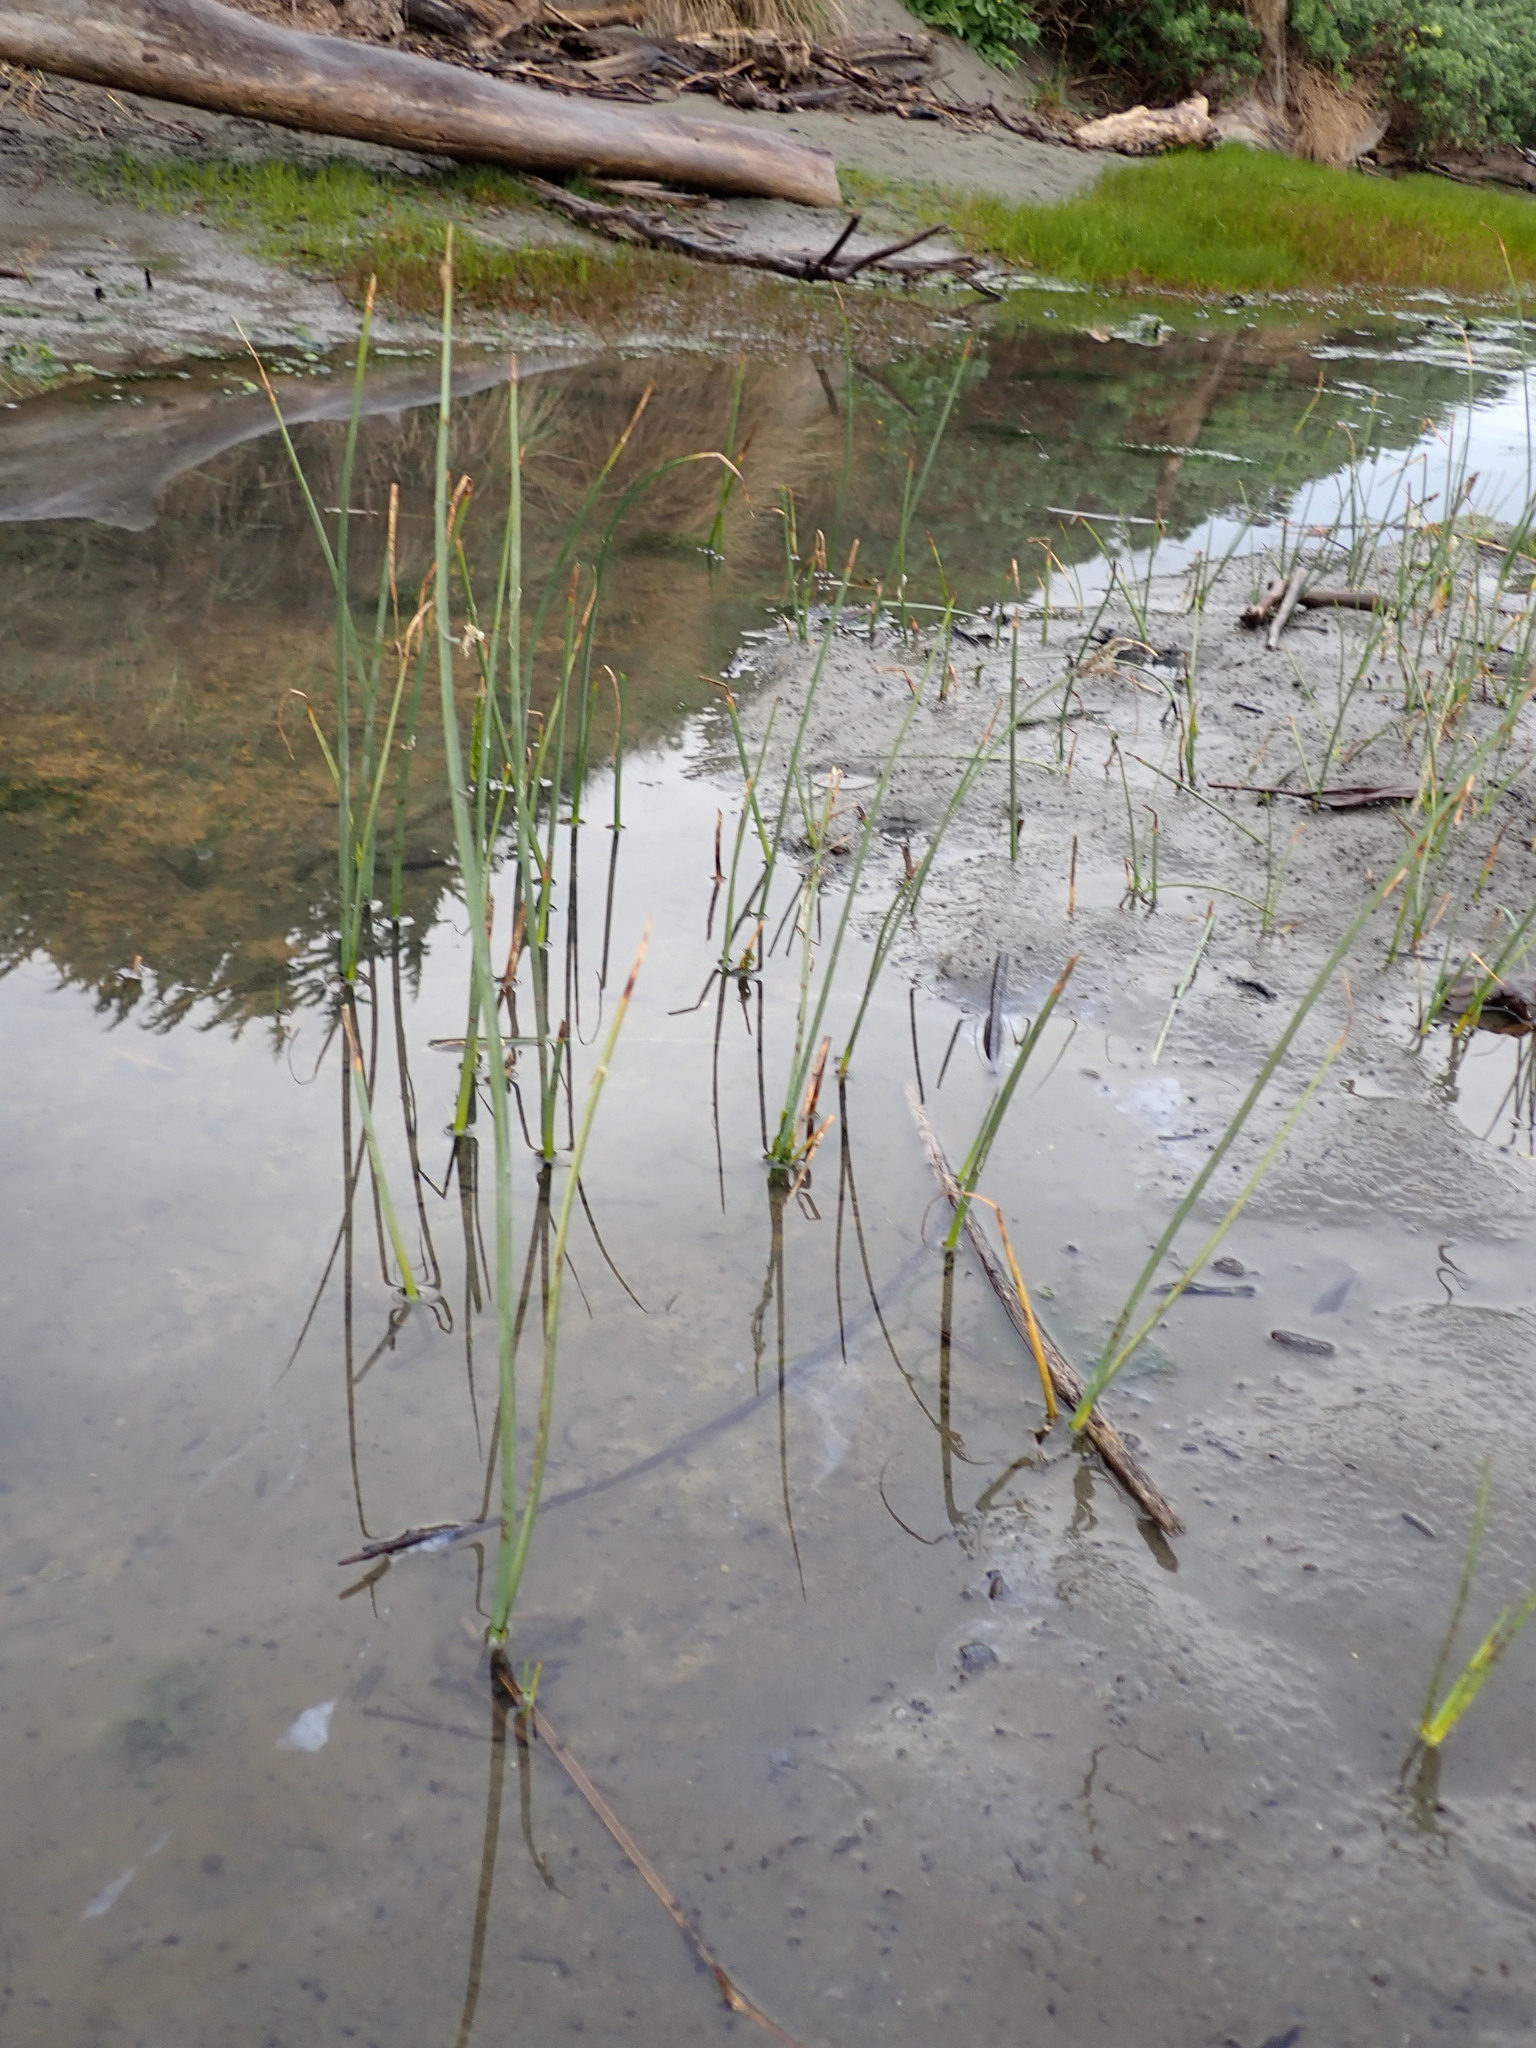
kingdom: Plantae
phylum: Tracheophyta
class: Liliopsida
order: Poales
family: Cyperaceae
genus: Schoenoplectus
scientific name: Schoenoplectus pungens
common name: Sharp club-rush
